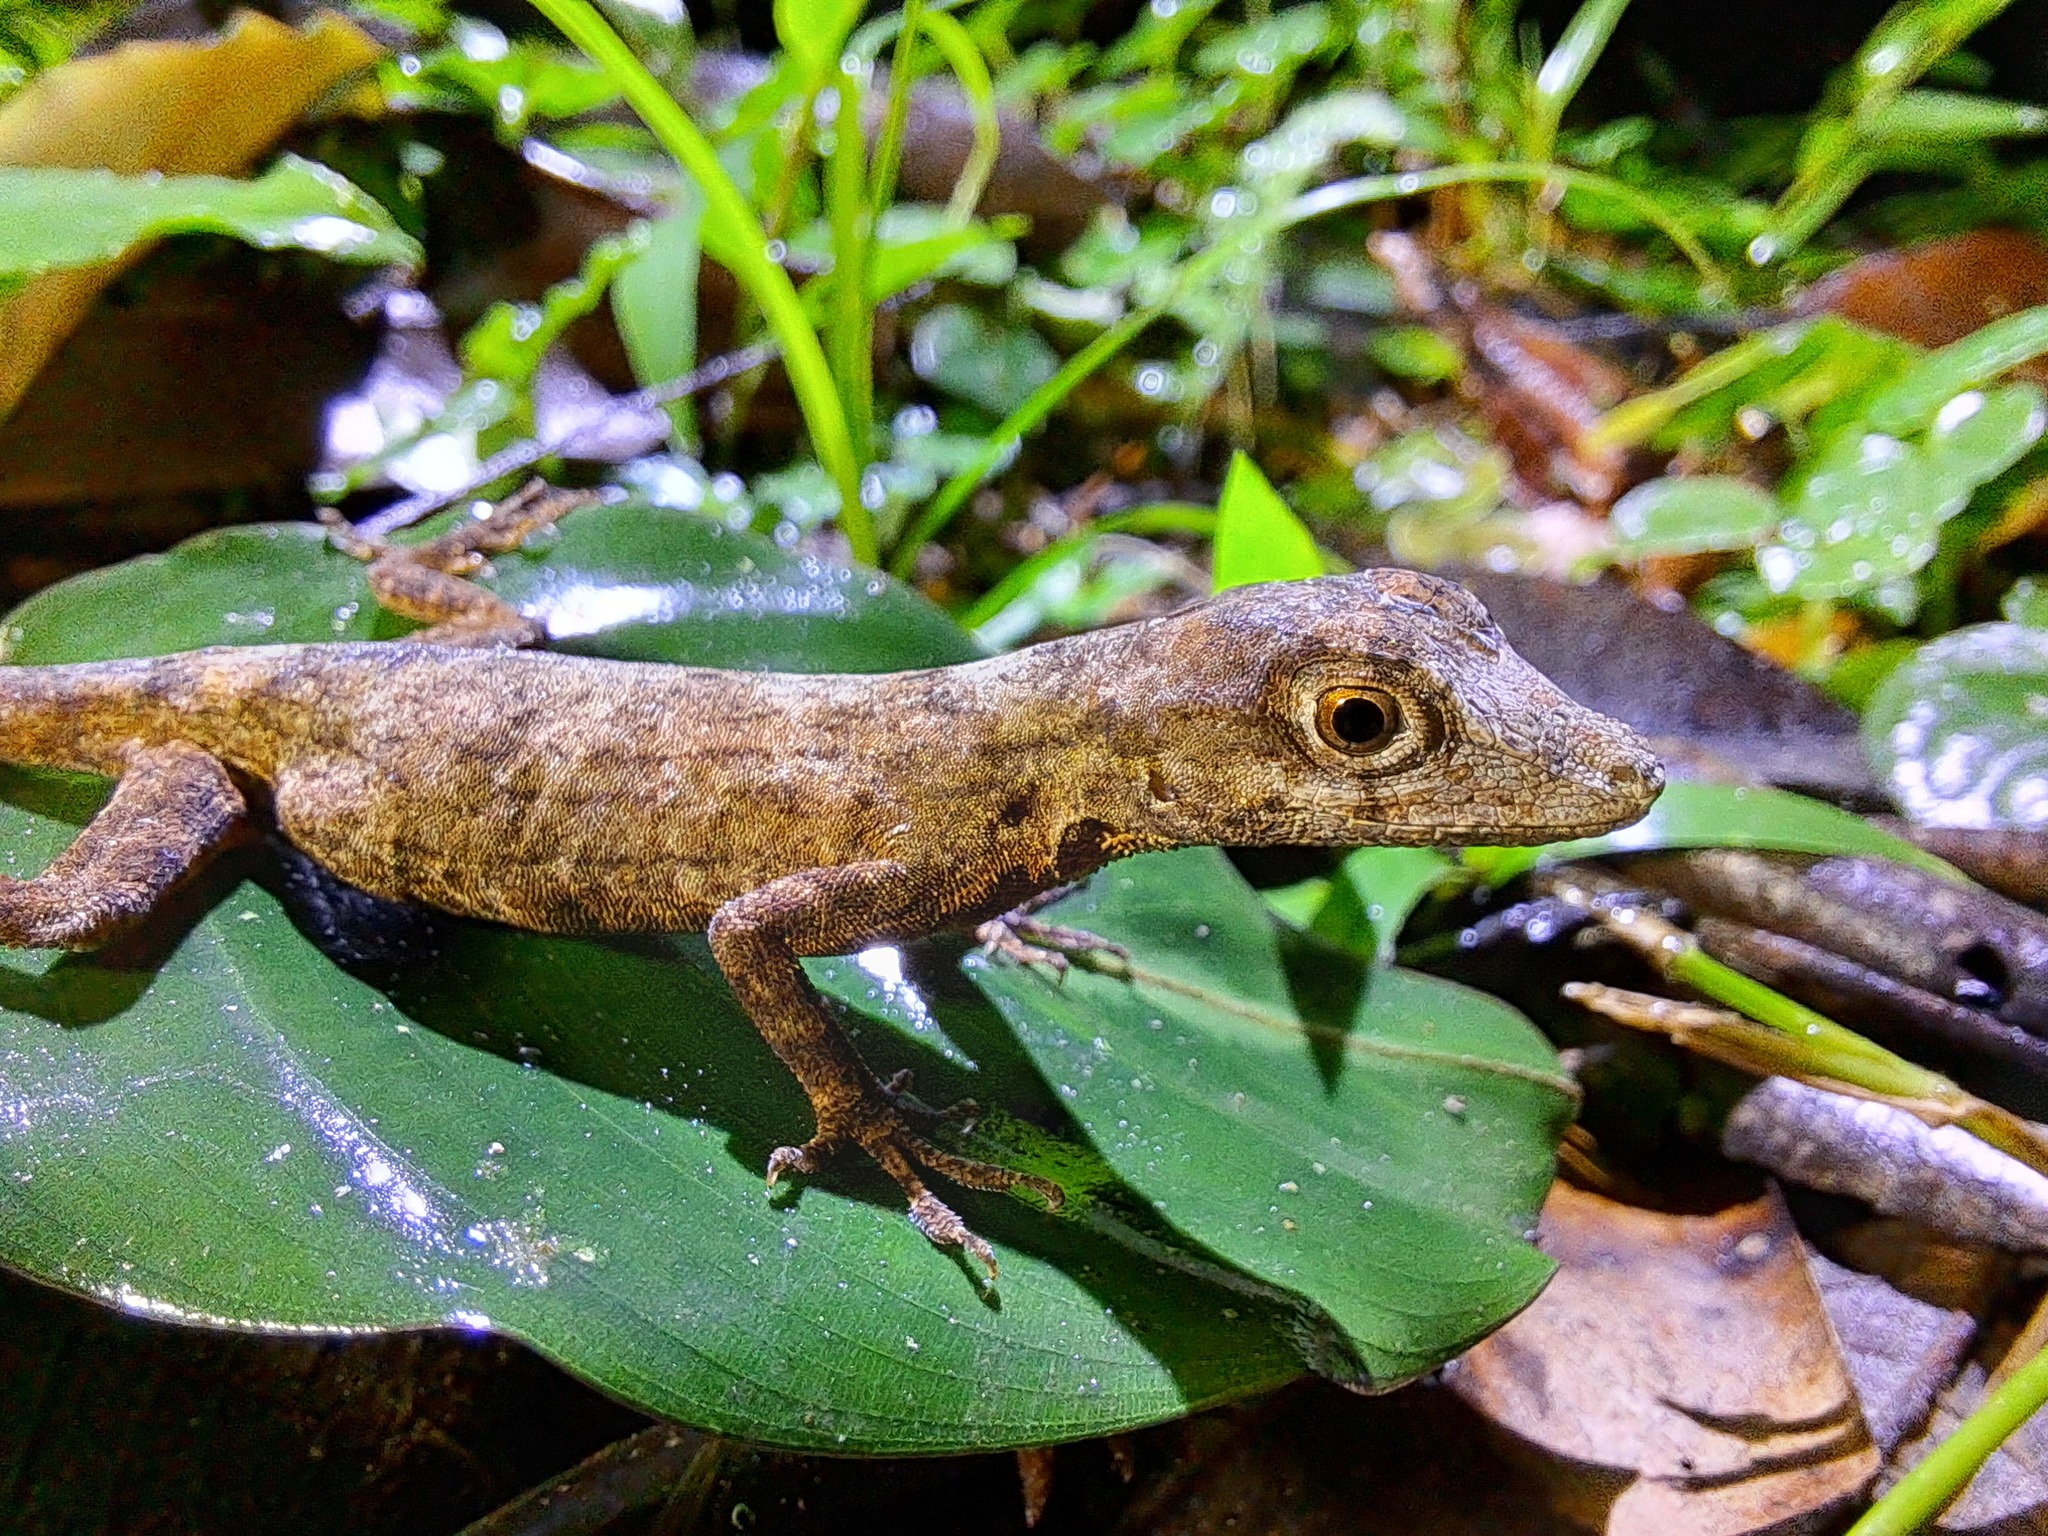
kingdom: Animalia
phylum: Chordata
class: Squamata
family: Dactyloidae
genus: Anolis
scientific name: Anolis fuscoauratus
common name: Brown-eared anole
